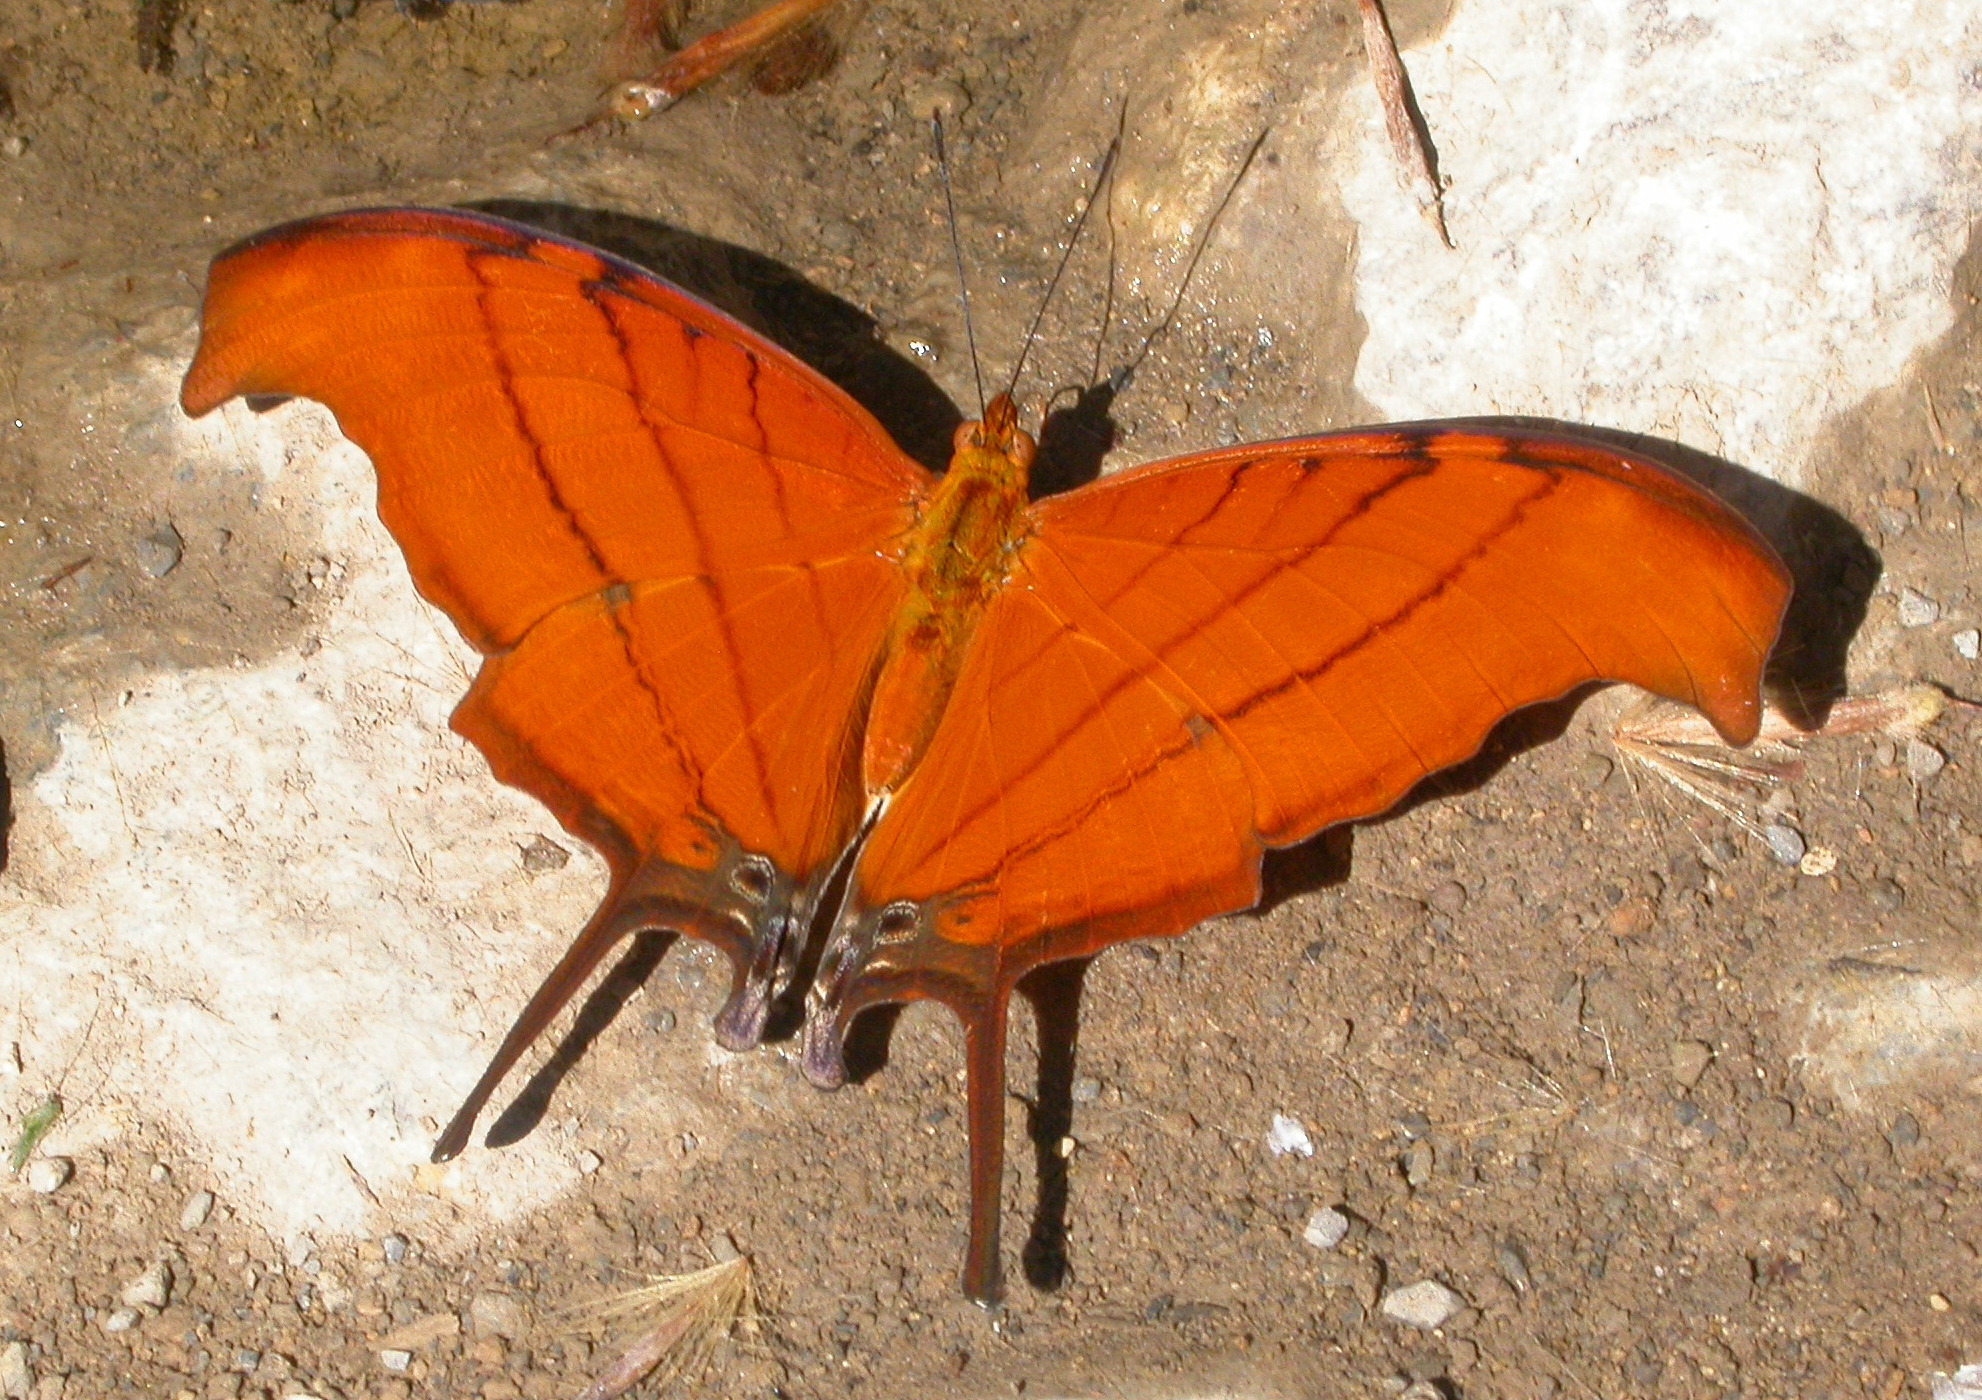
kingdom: Animalia
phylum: Arthropoda
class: Insecta
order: Lepidoptera
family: Nymphalidae
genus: Marpesia
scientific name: Marpesia petreus
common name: Red dagger wing
